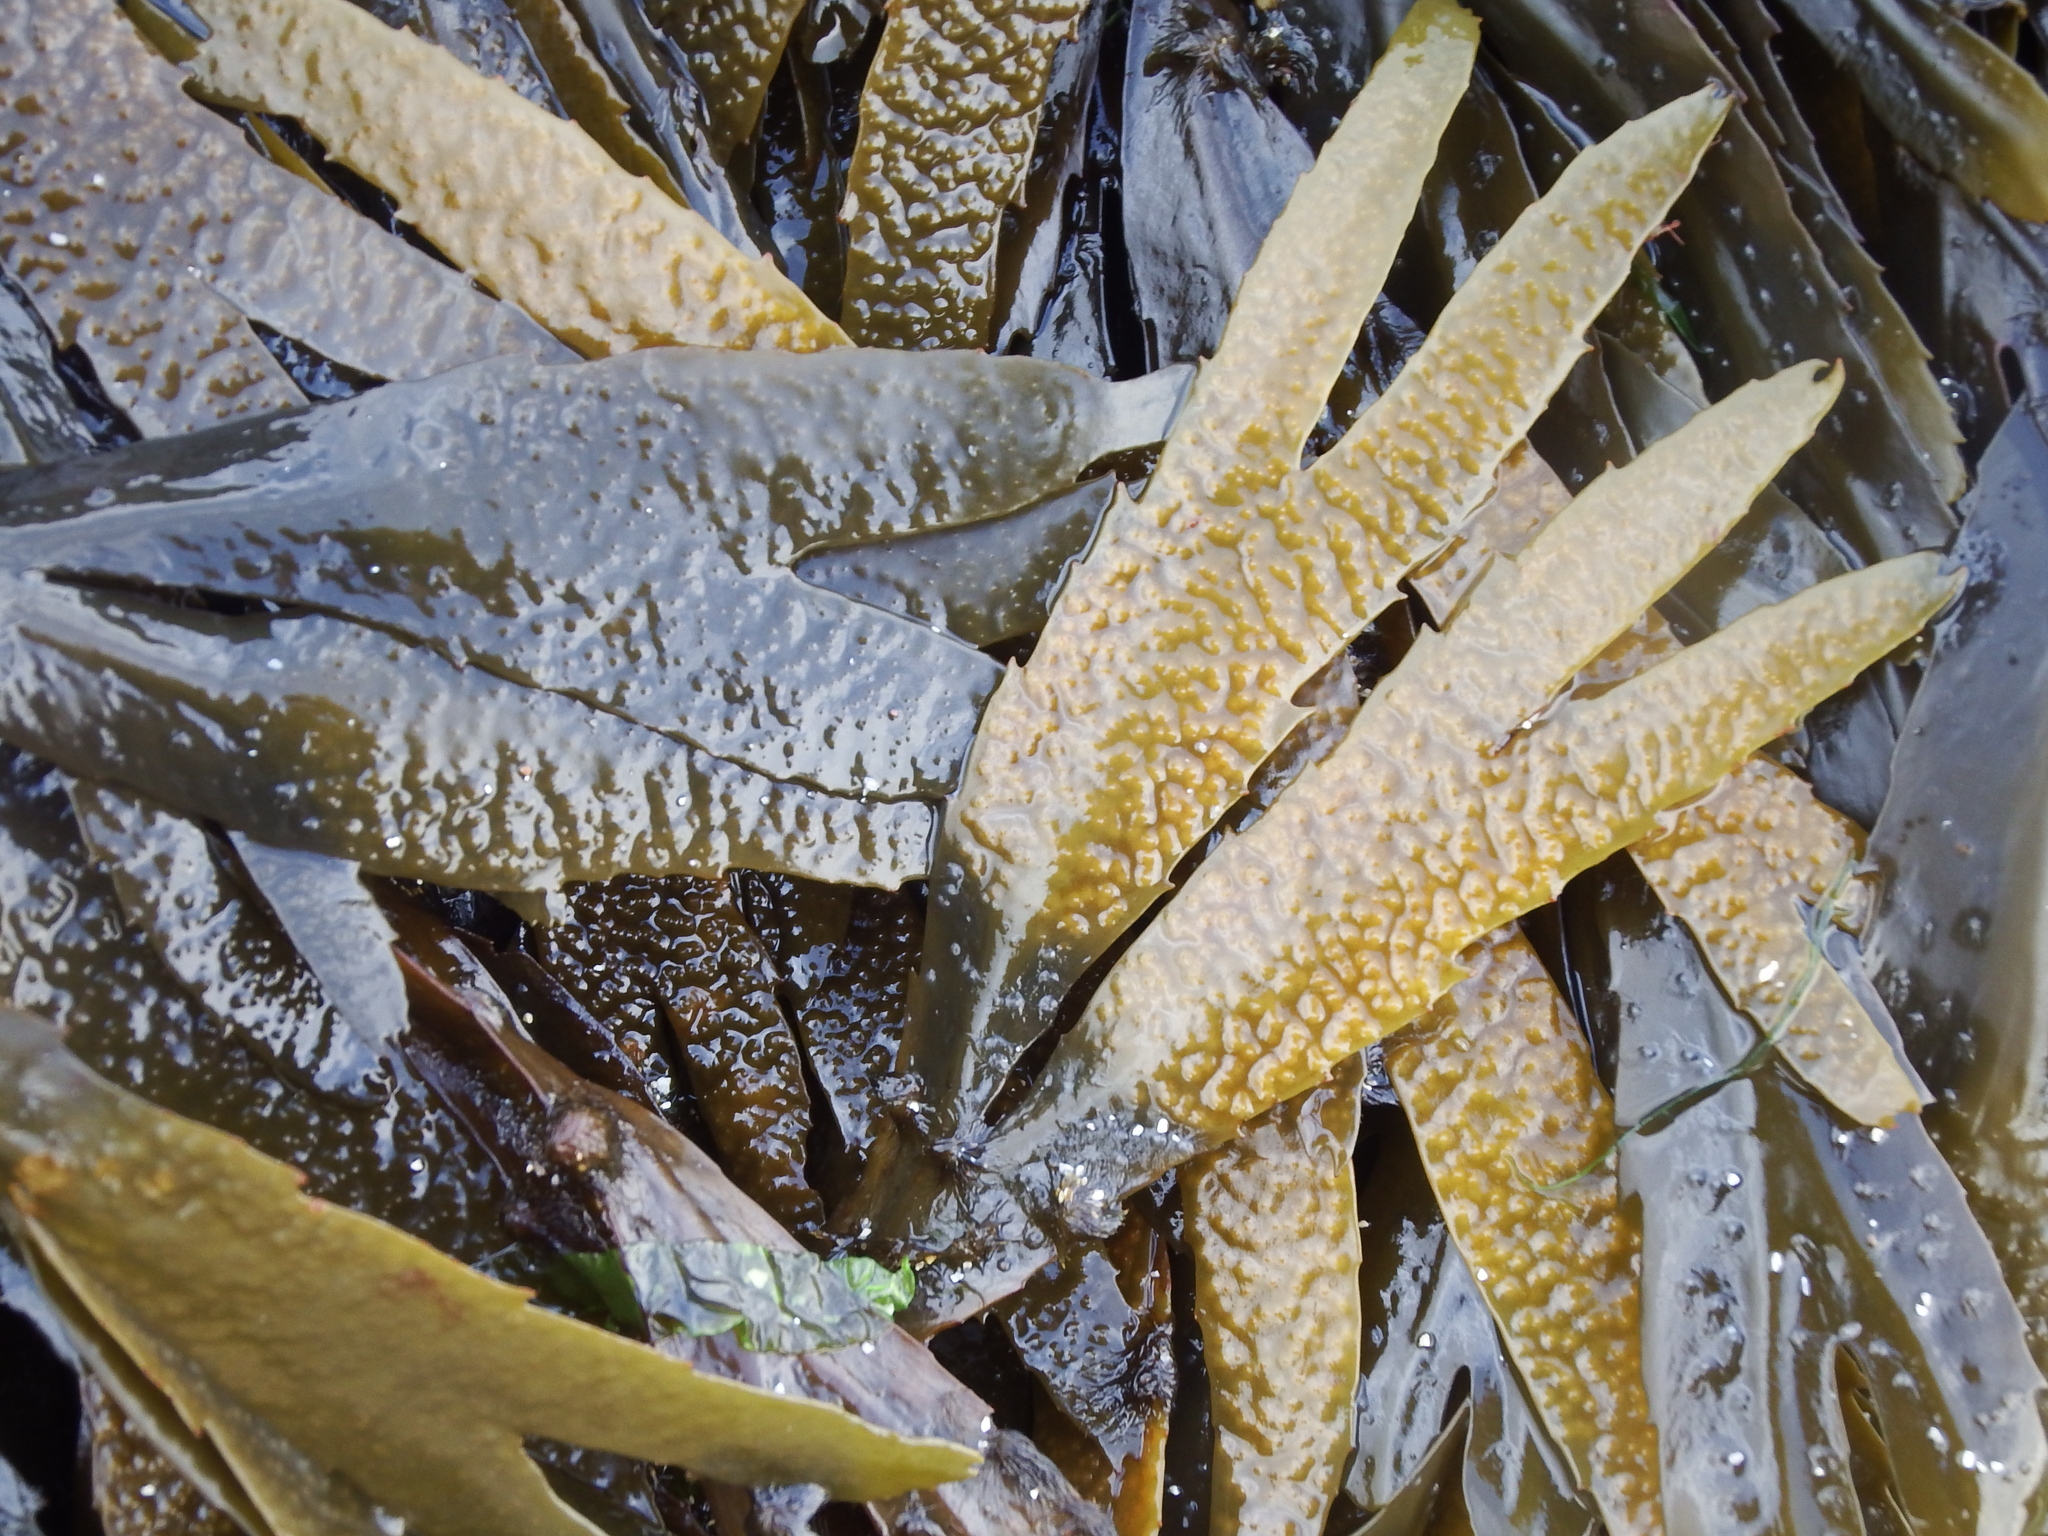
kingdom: Chromista
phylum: Ochrophyta
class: Phaeophyceae
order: Fucales
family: Fucaceae
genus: Fucus
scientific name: Fucus serratus
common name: Toothed wrack
